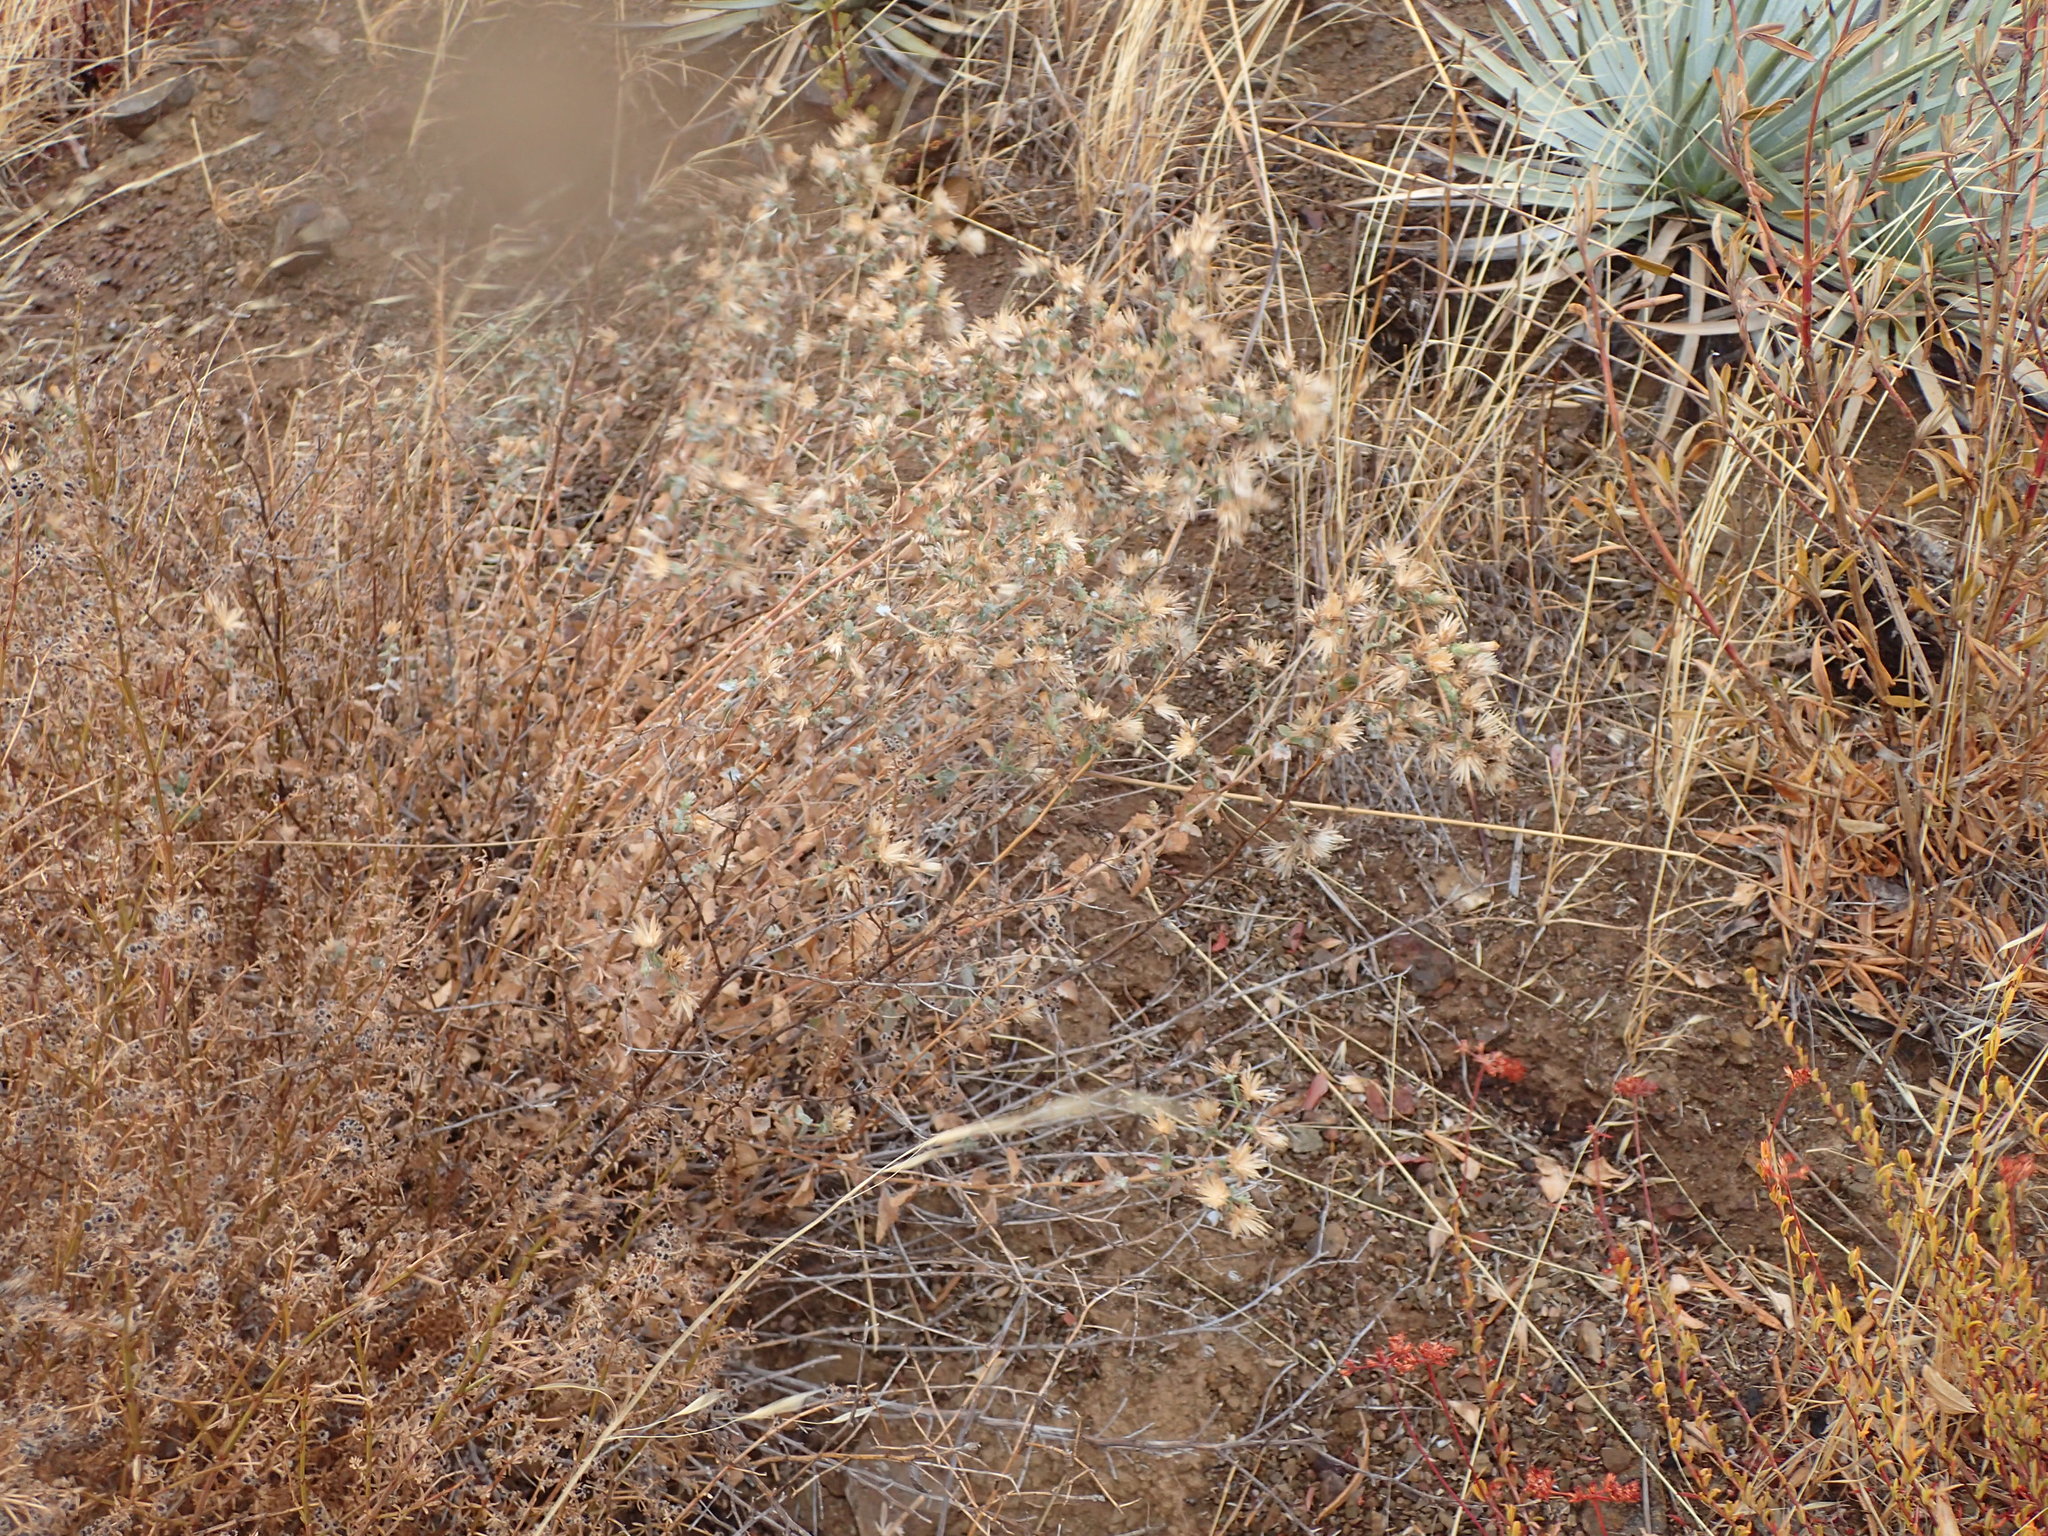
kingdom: Plantae
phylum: Tracheophyta
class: Magnoliopsida
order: Asterales
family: Asteraceae
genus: Brickellia
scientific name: Brickellia nevinii
